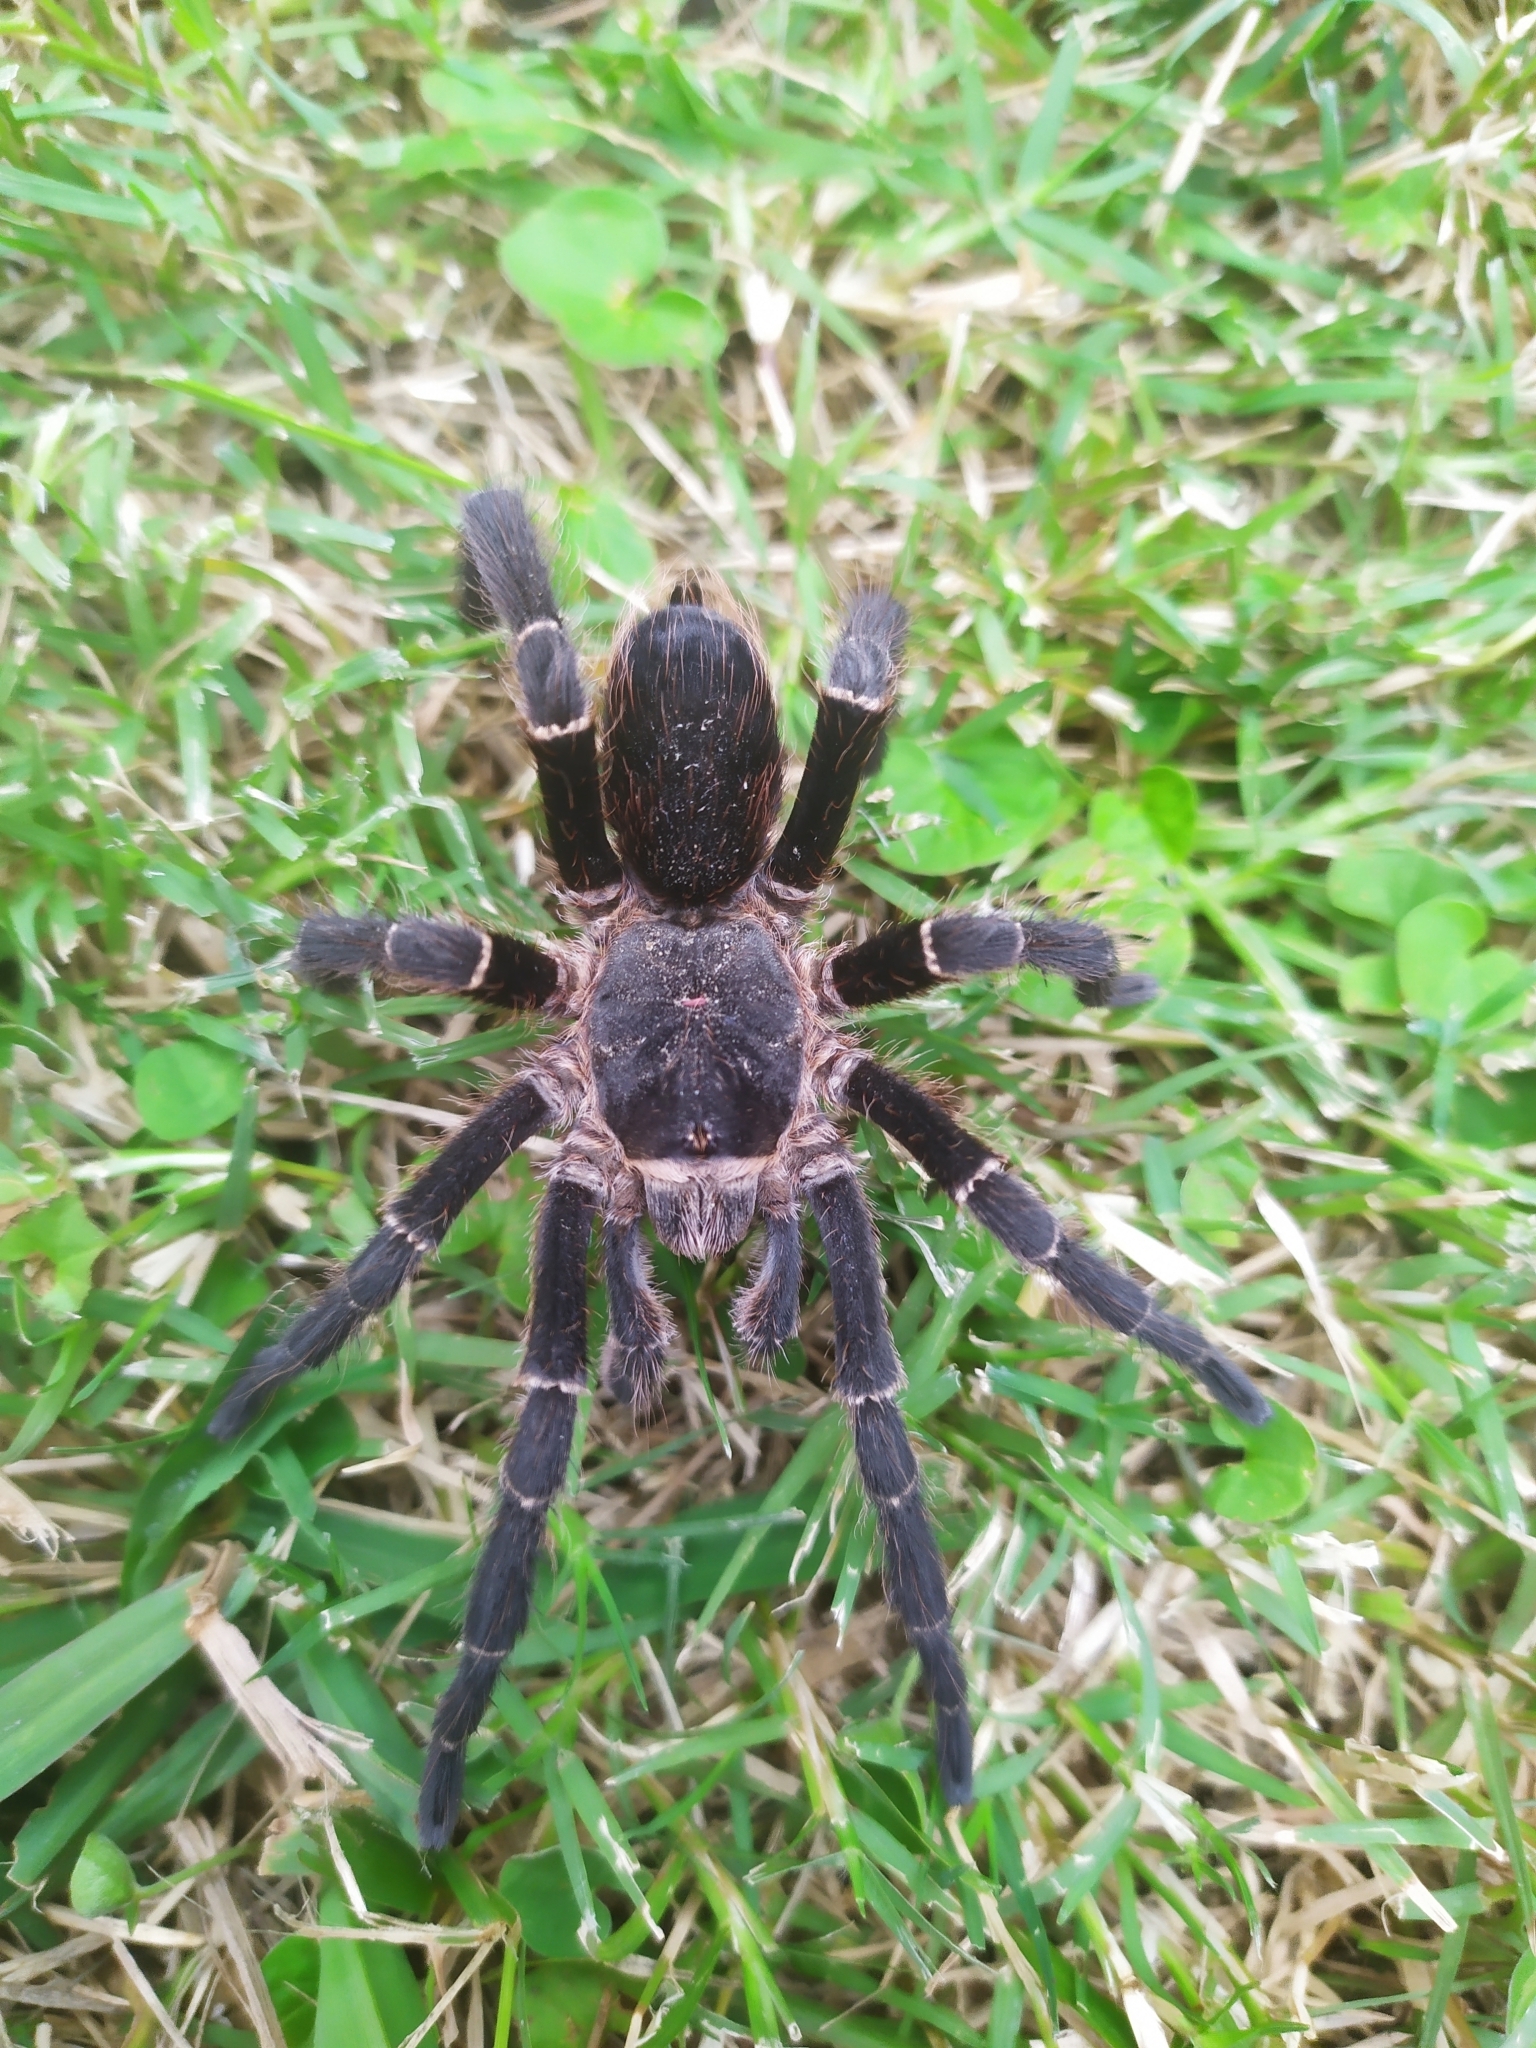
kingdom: Animalia
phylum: Arthropoda
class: Arachnida
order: Araneae
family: Theraphosidae
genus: Eupalaestrus
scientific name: Eupalaestrus weijenberghi
